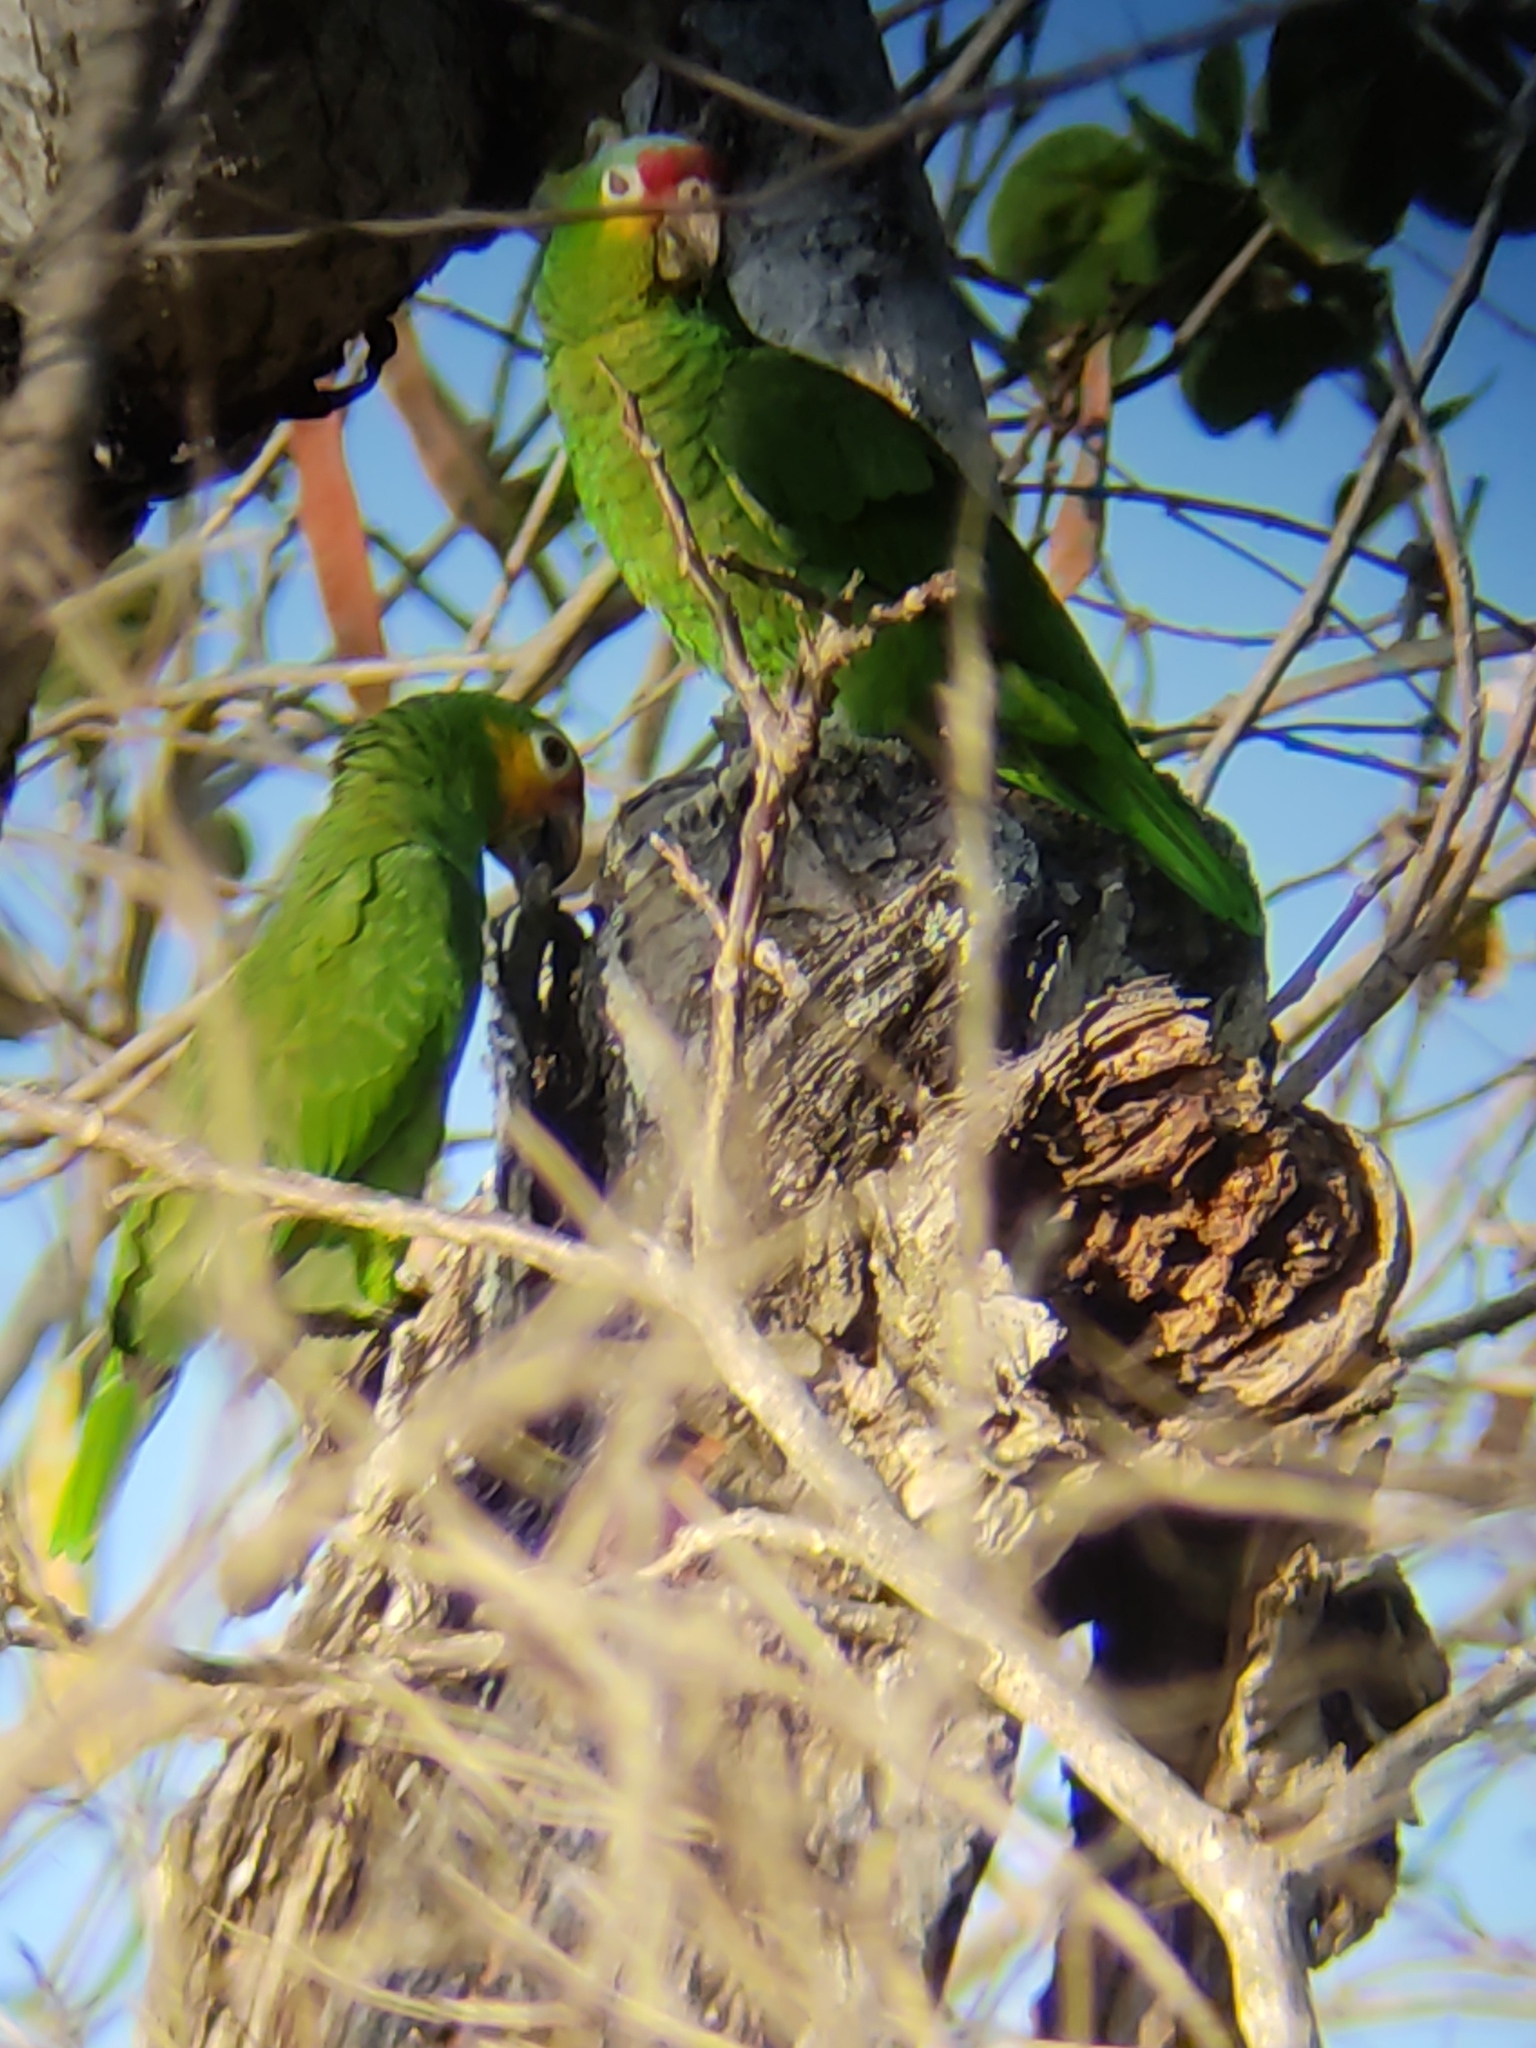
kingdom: Animalia
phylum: Chordata
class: Aves
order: Psittaciformes
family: Psittacidae
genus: Amazona
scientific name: Amazona autumnalis
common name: Red-lored amazon
